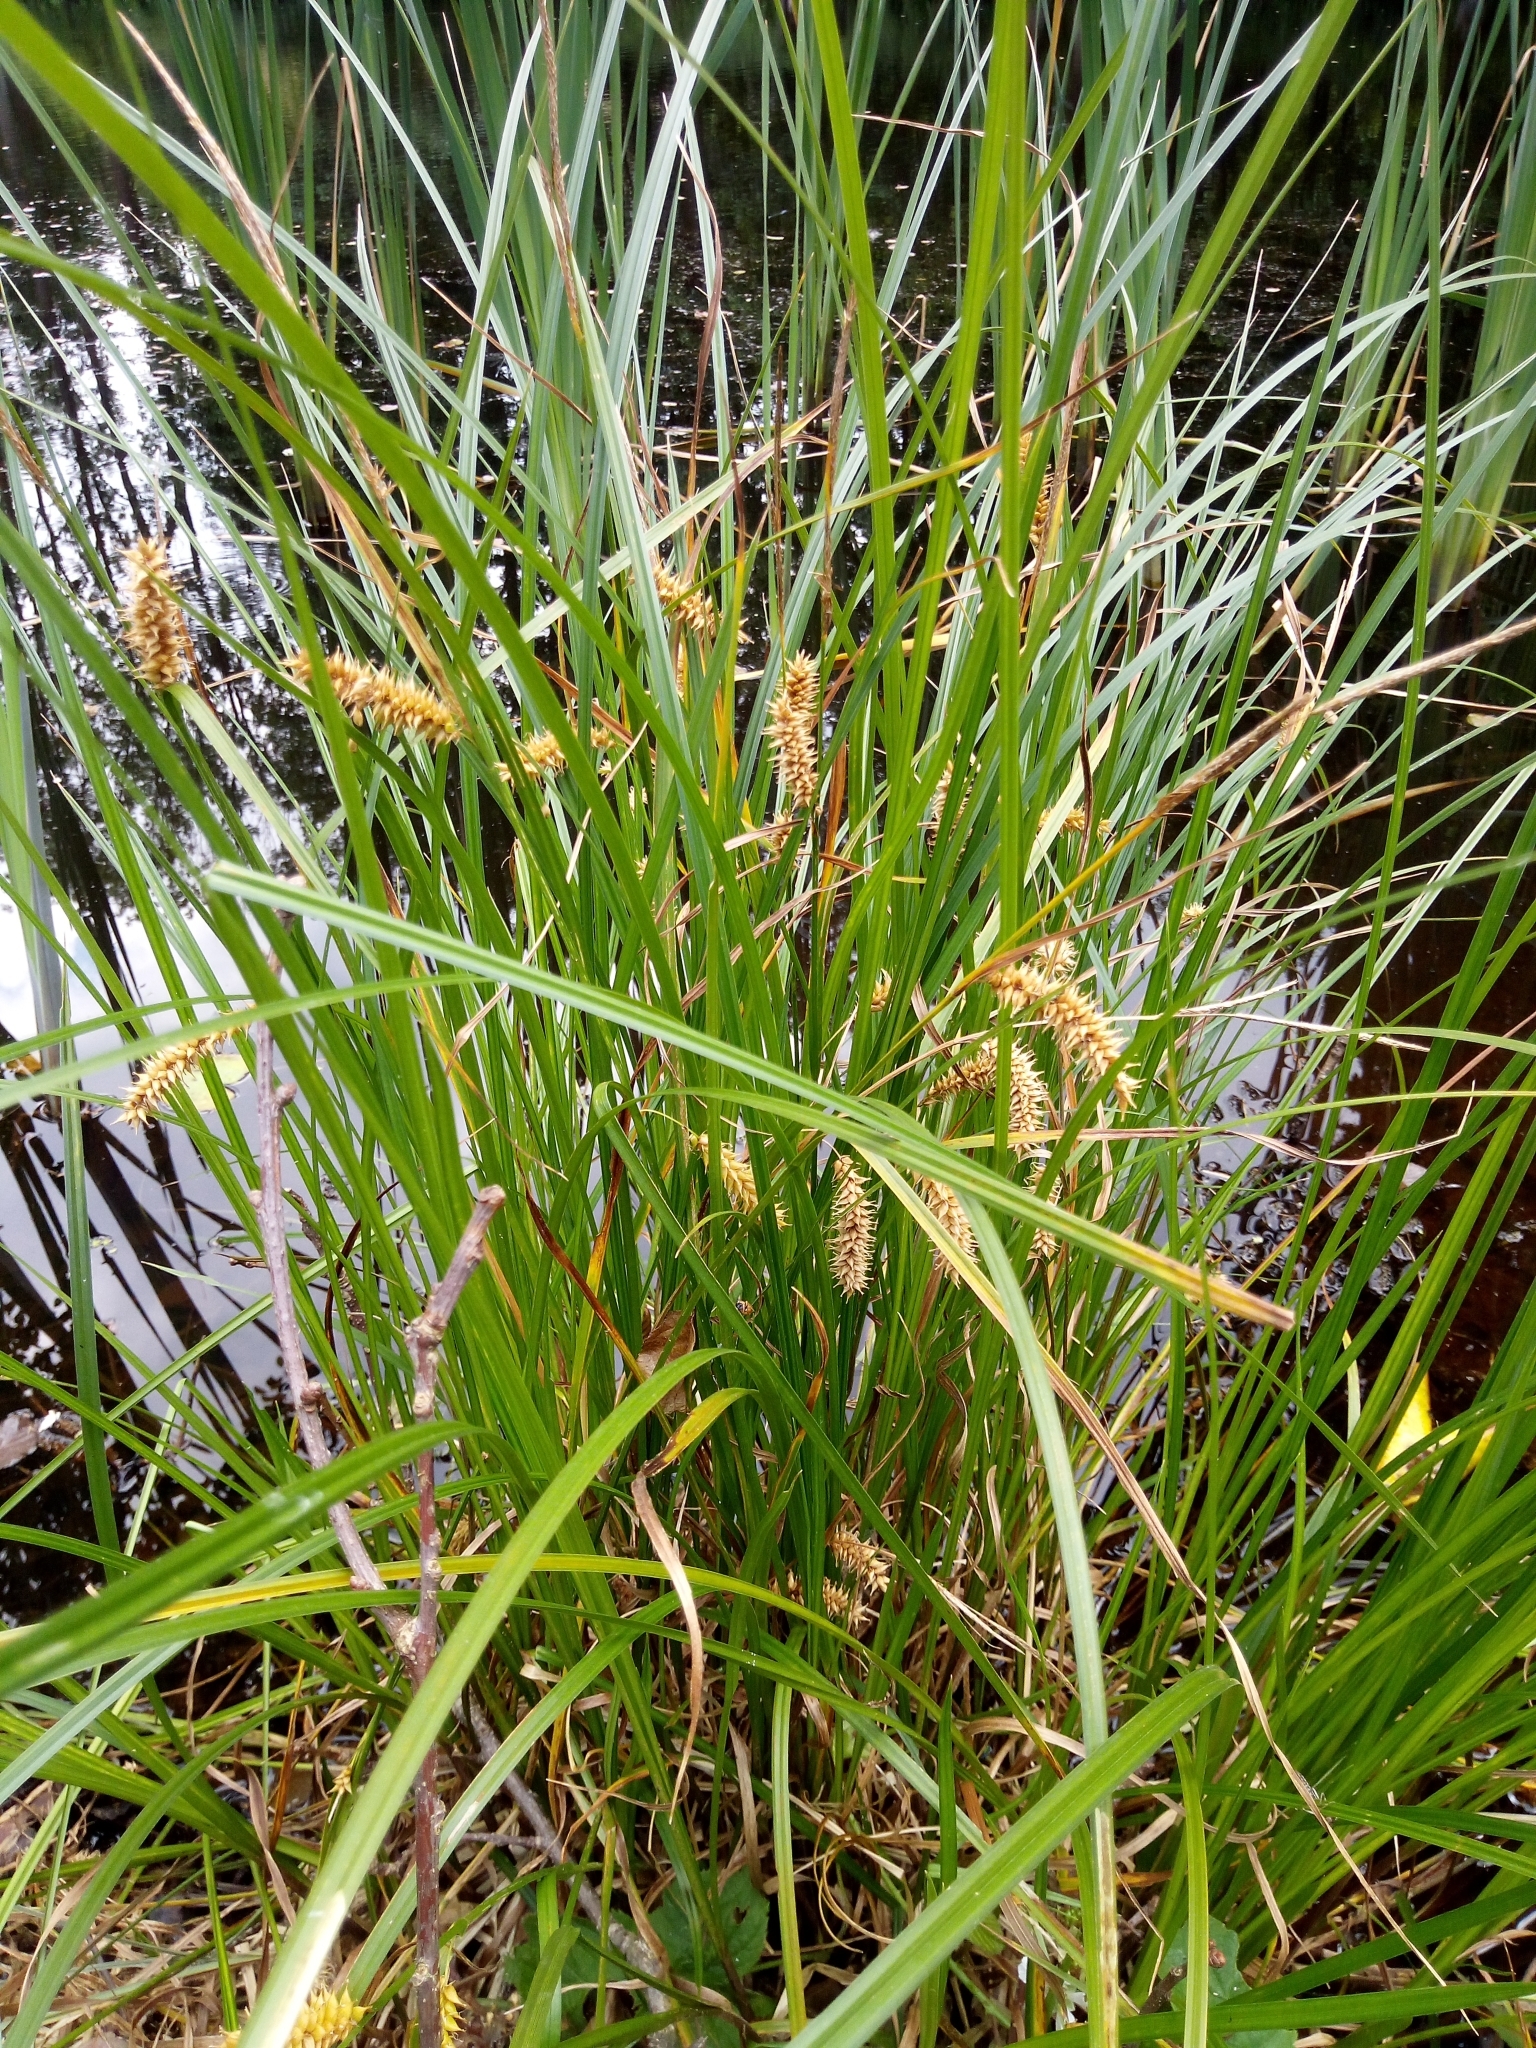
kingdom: Plantae
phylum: Tracheophyta
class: Liliopsida
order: Poales
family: Cyperaceae
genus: Carex
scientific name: Carex vesicaria
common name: Bladder-sedge
